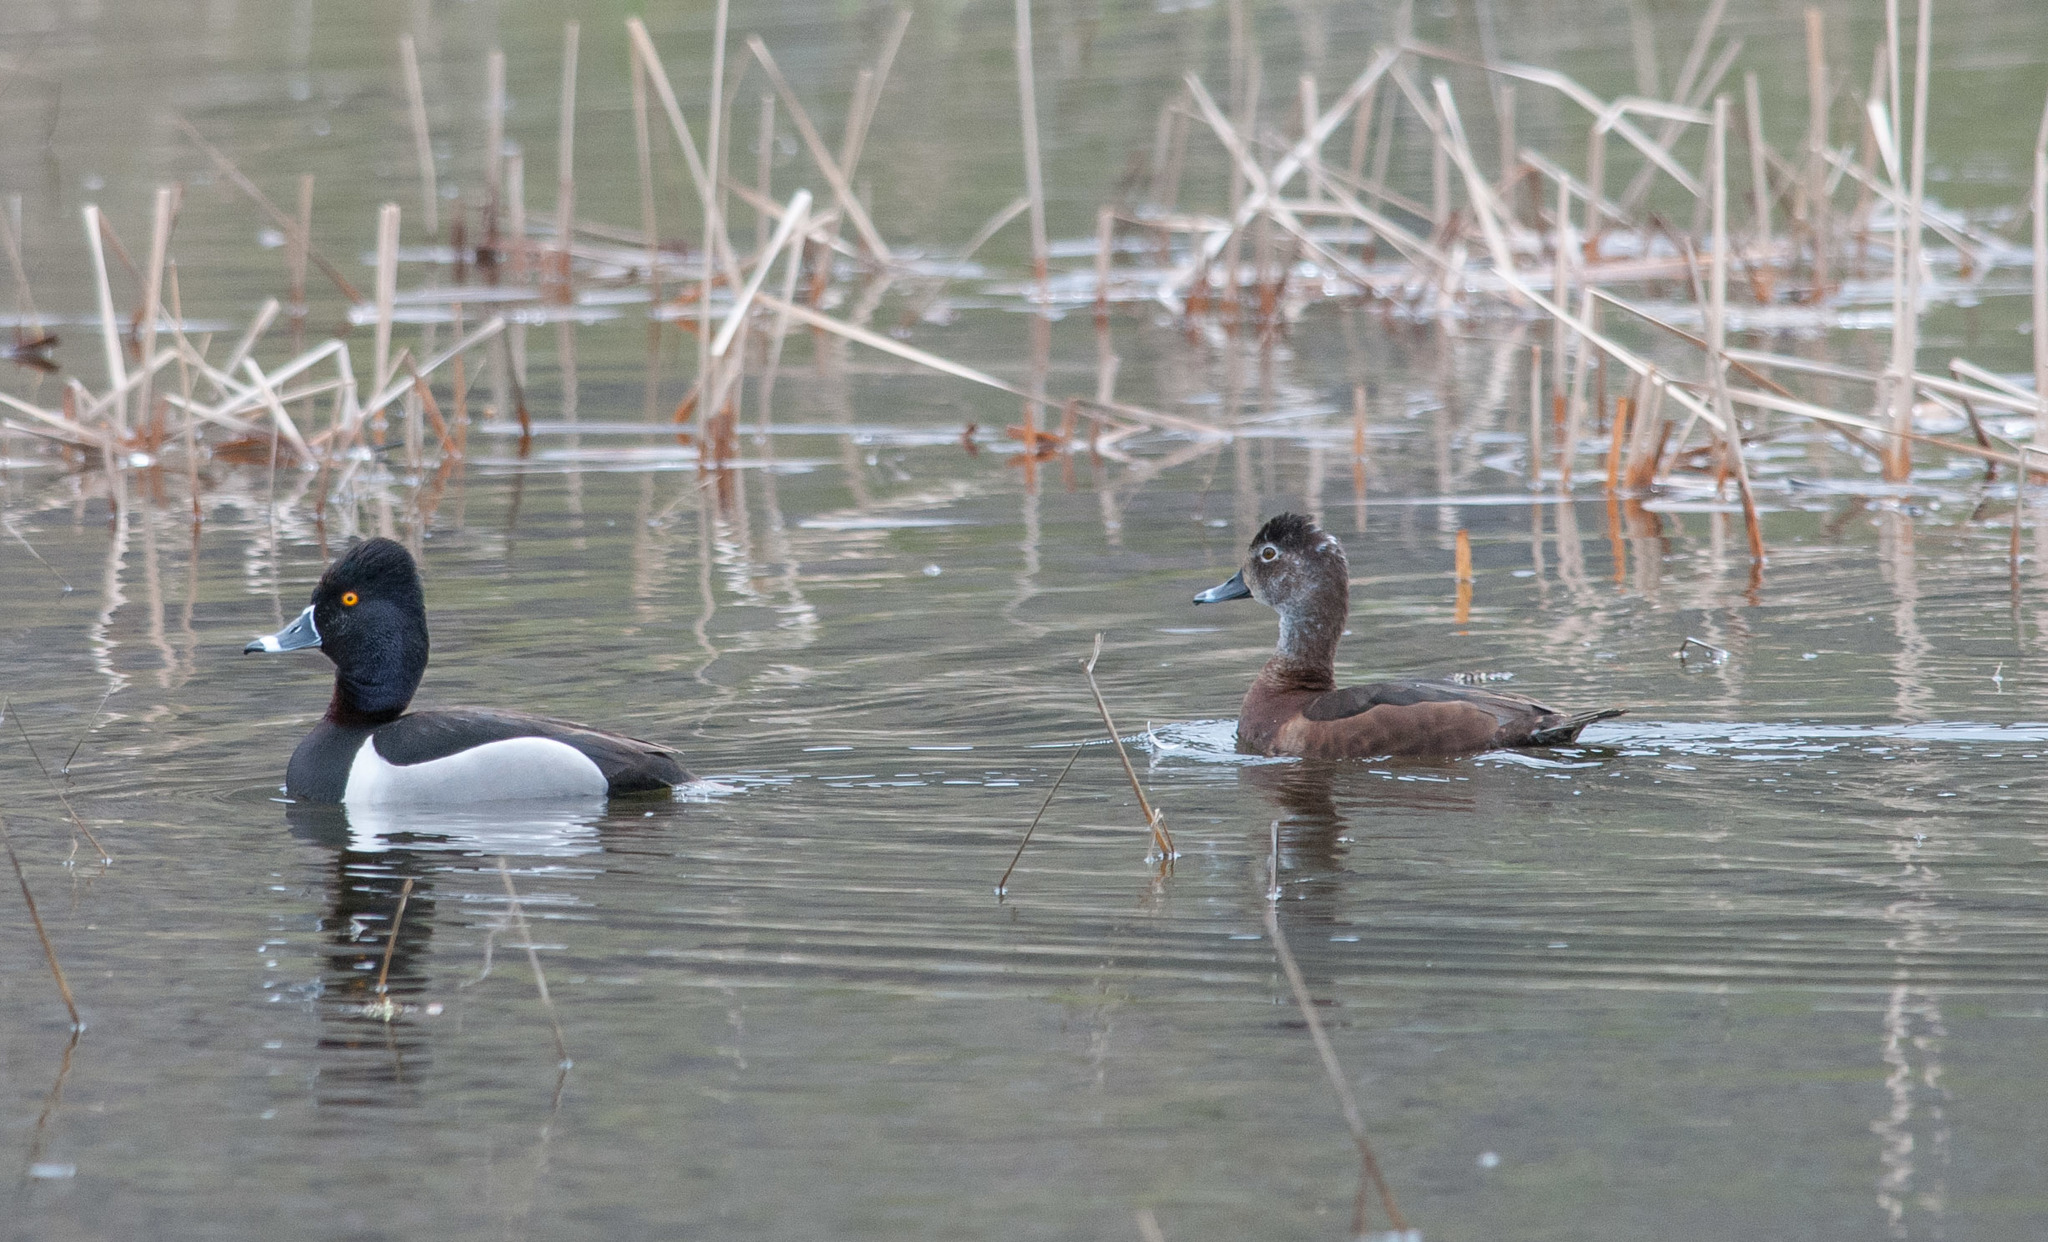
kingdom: Animalia
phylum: Chordata
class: Aves
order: Anseriformes
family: Anatidae
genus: Aythya
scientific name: Aythya collaris
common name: Ring-necked duck
